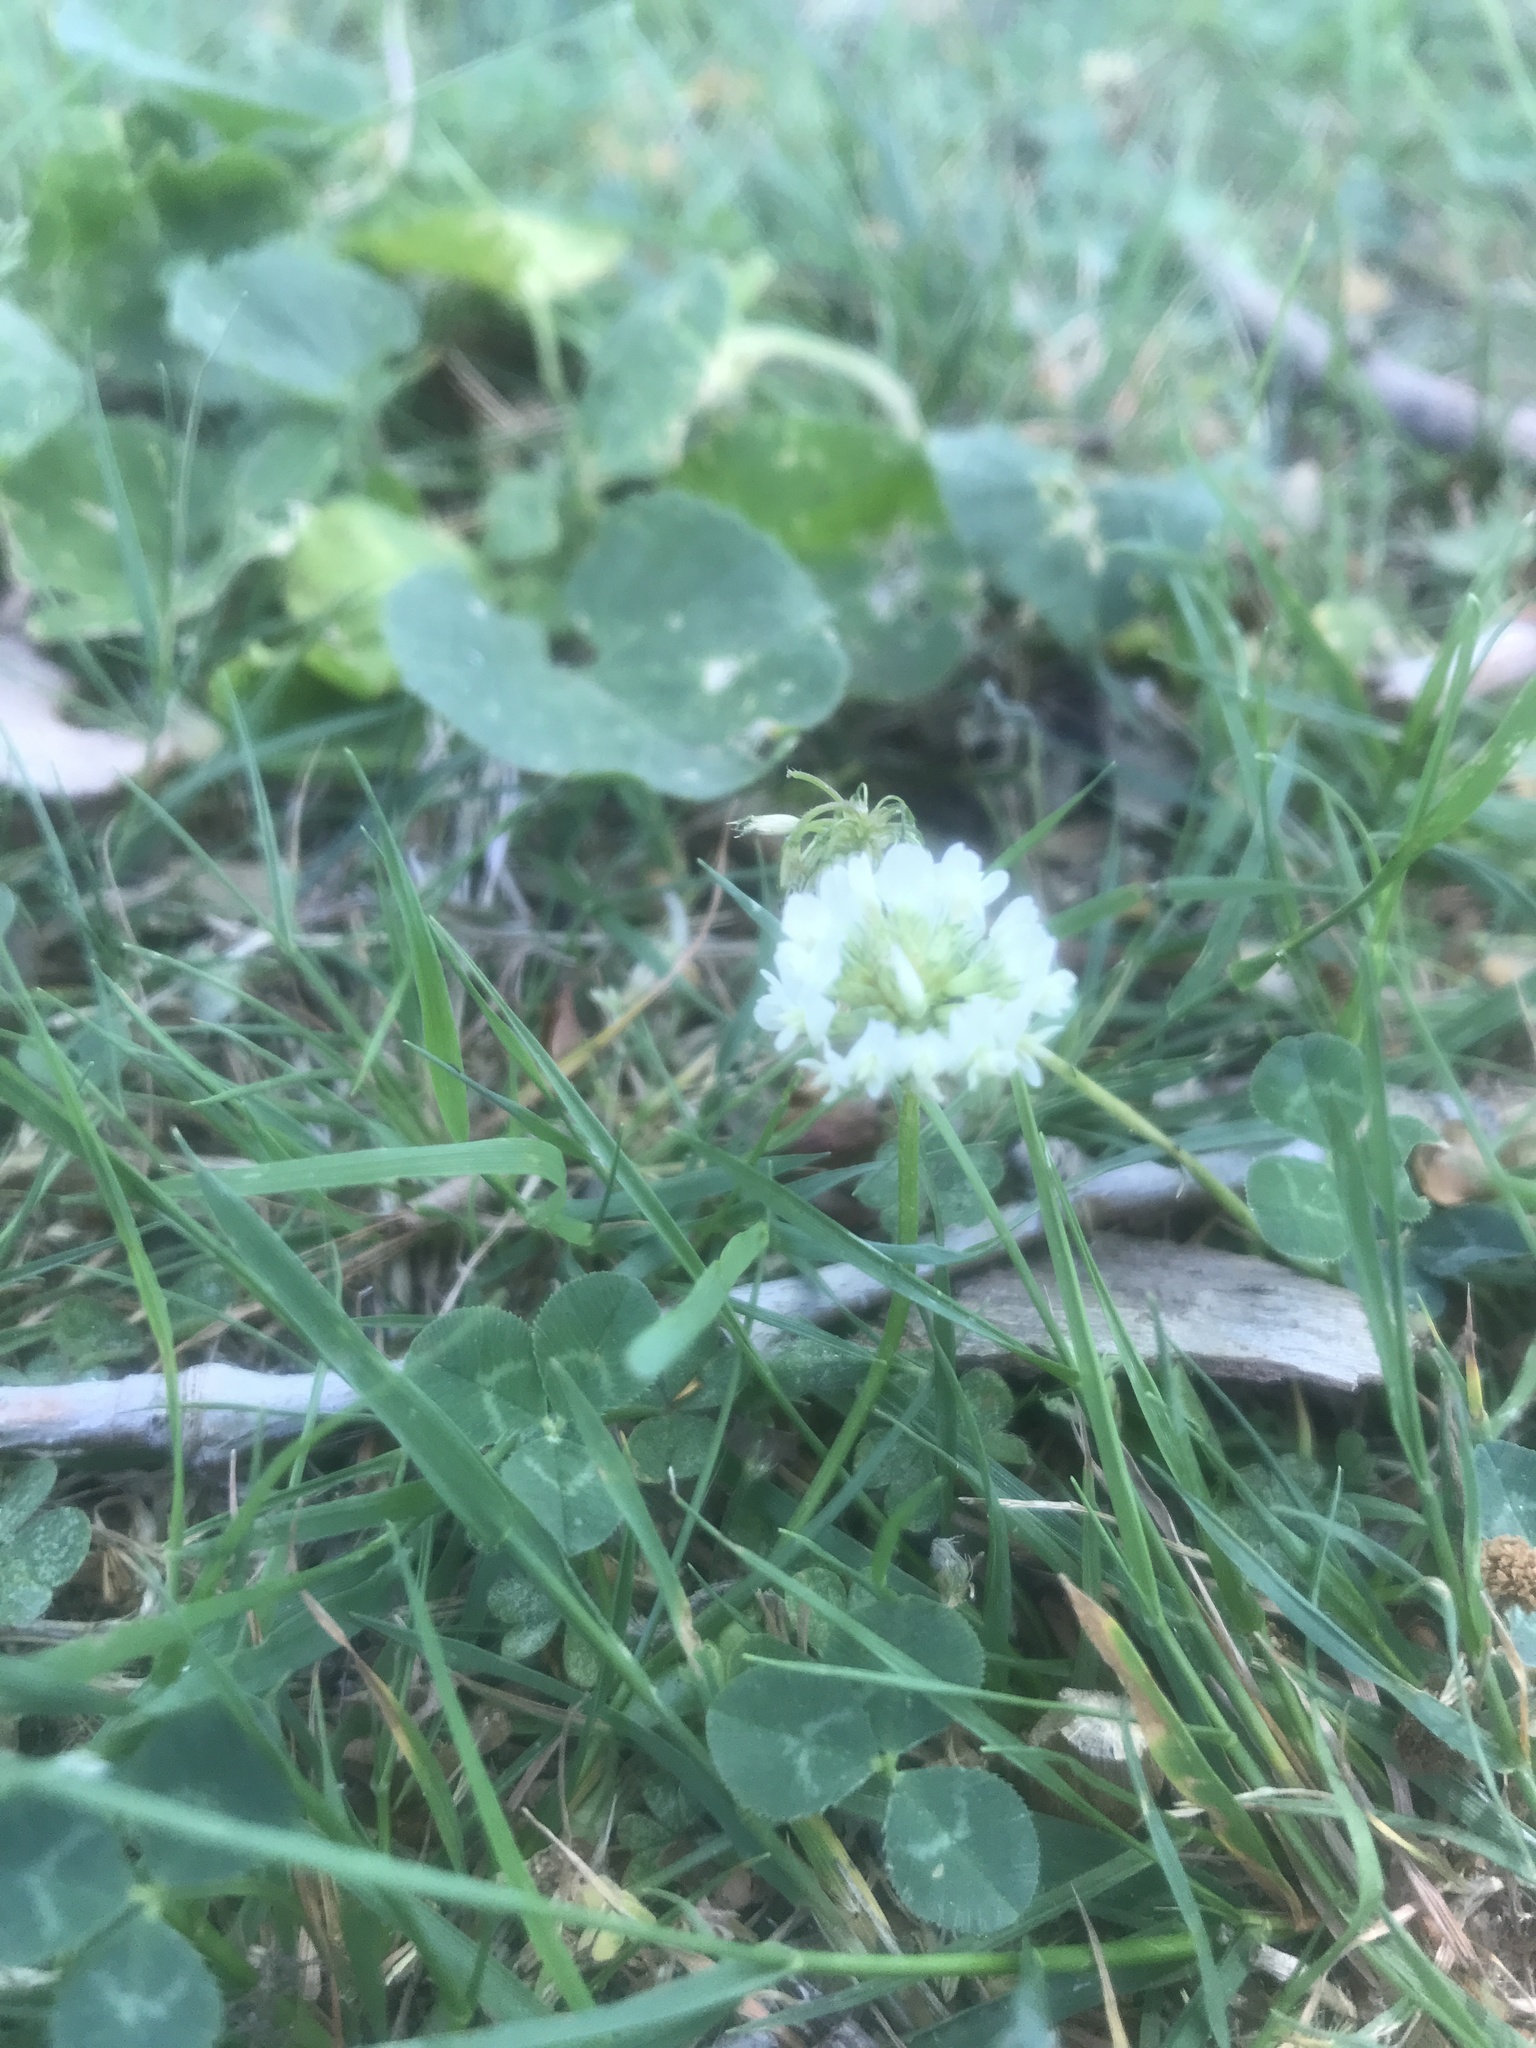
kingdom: Plantae
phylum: Tracheophyta
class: Magnoliopsida
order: Fabales
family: Fabaceae
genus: Trifolium
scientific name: Trifolium repens
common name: White clover
